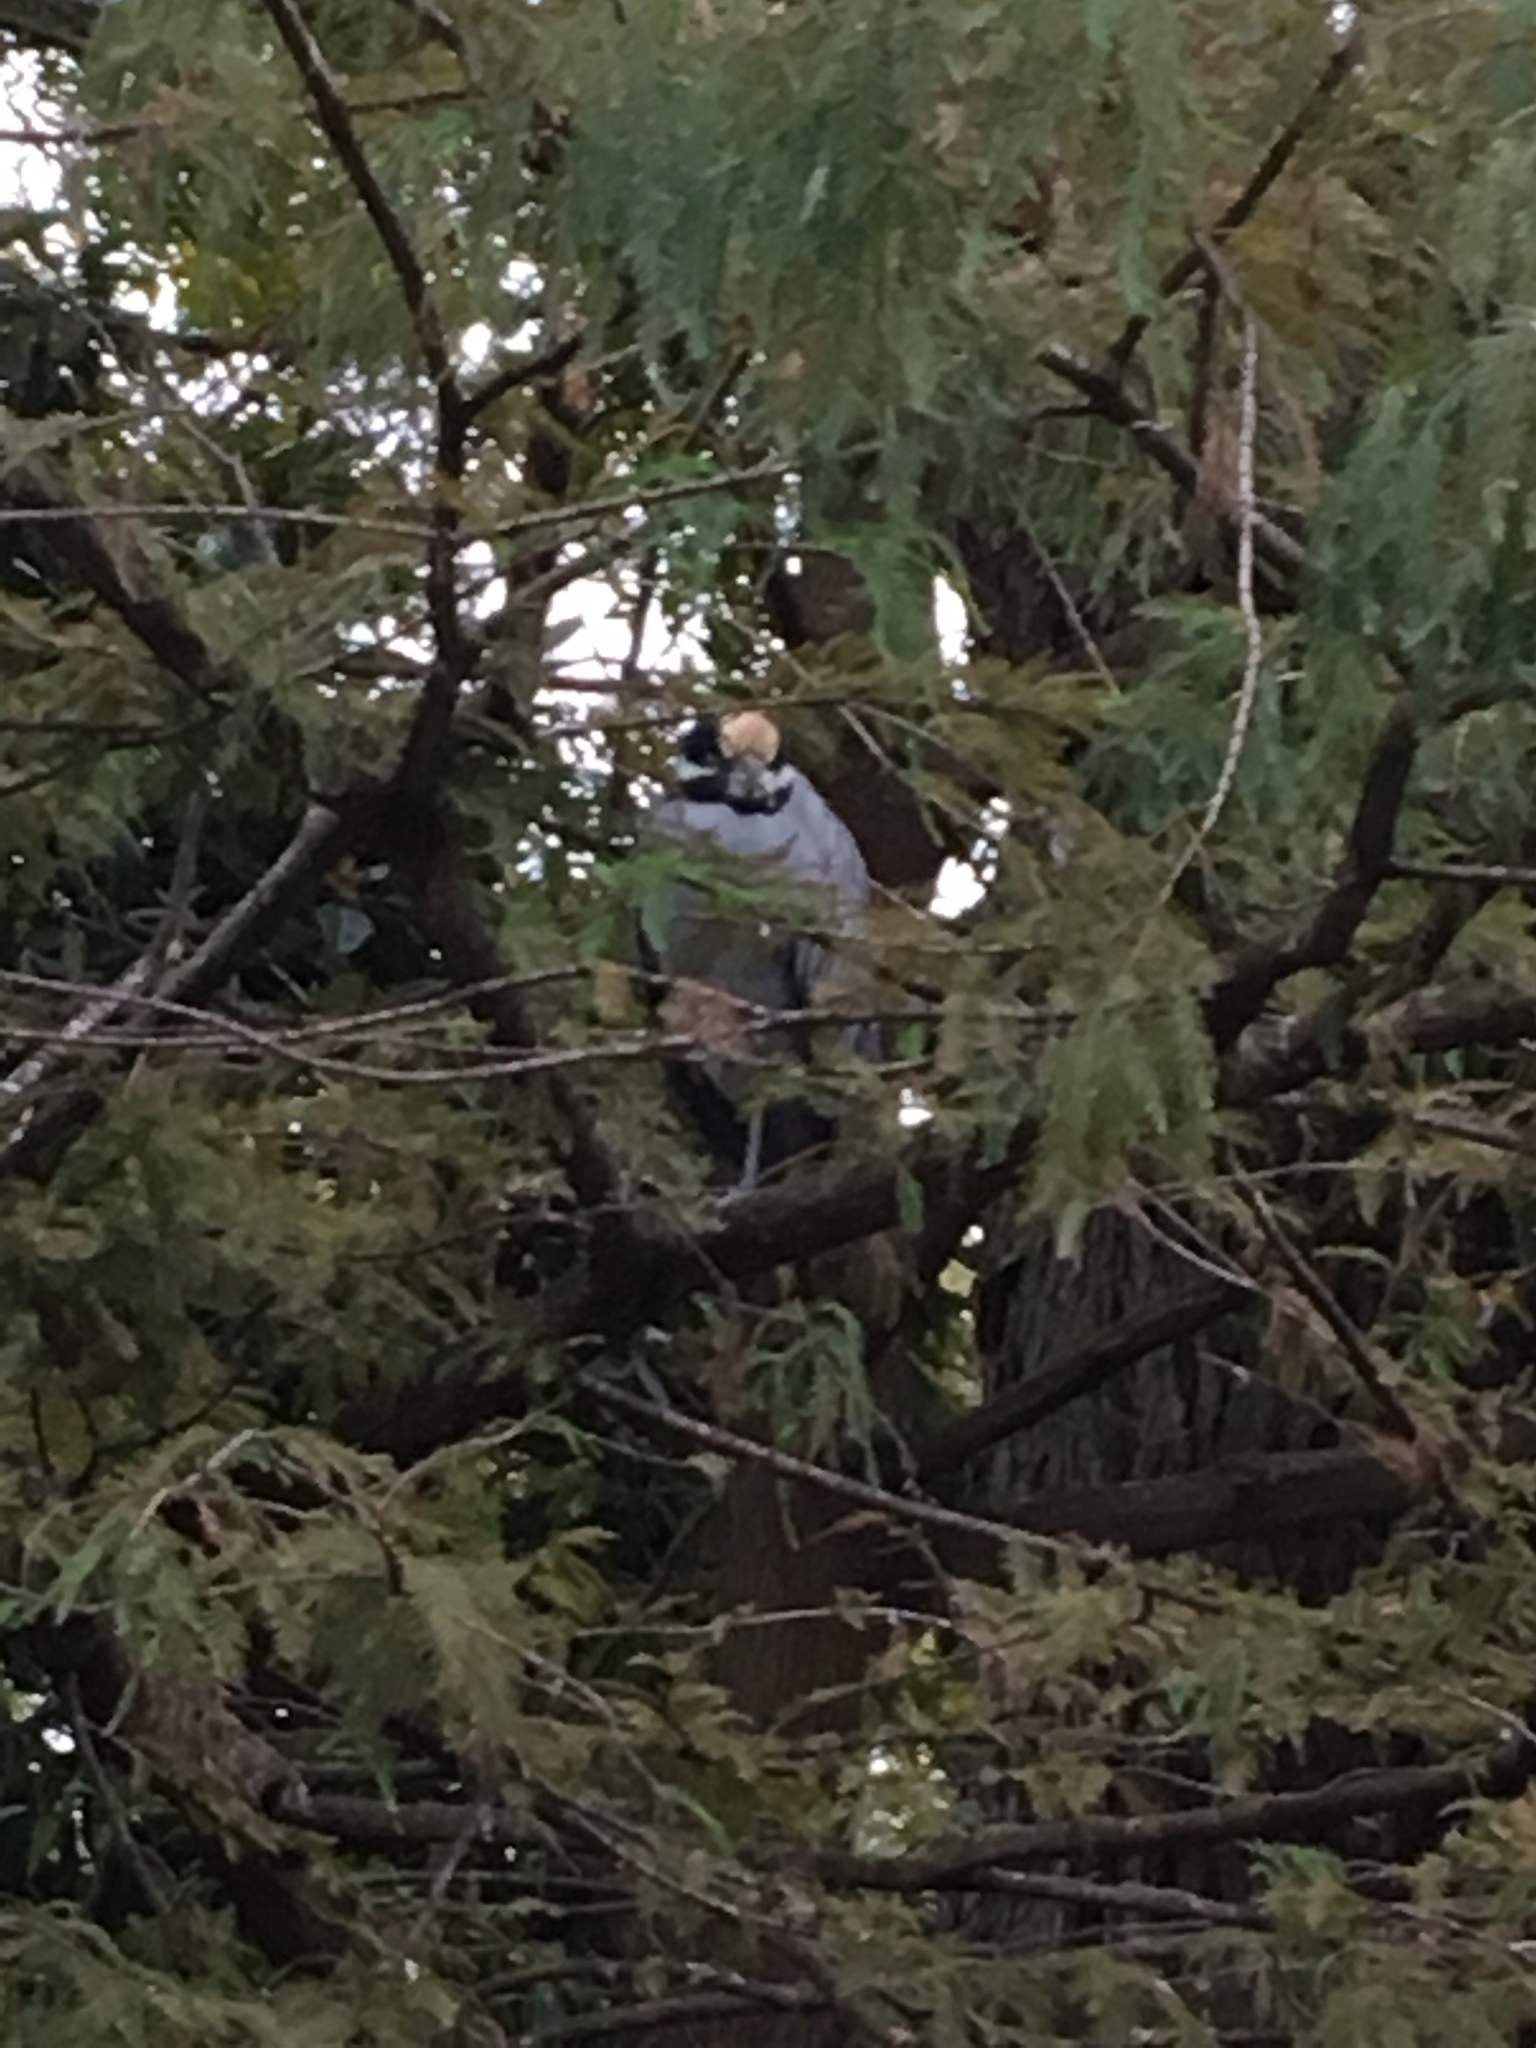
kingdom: Animalia
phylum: Chordata
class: Aves
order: Pelecaniformes
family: Ardeidae
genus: Nyctanassa
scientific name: Nyctanassa violacea
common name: Yellow-crowned night heron
